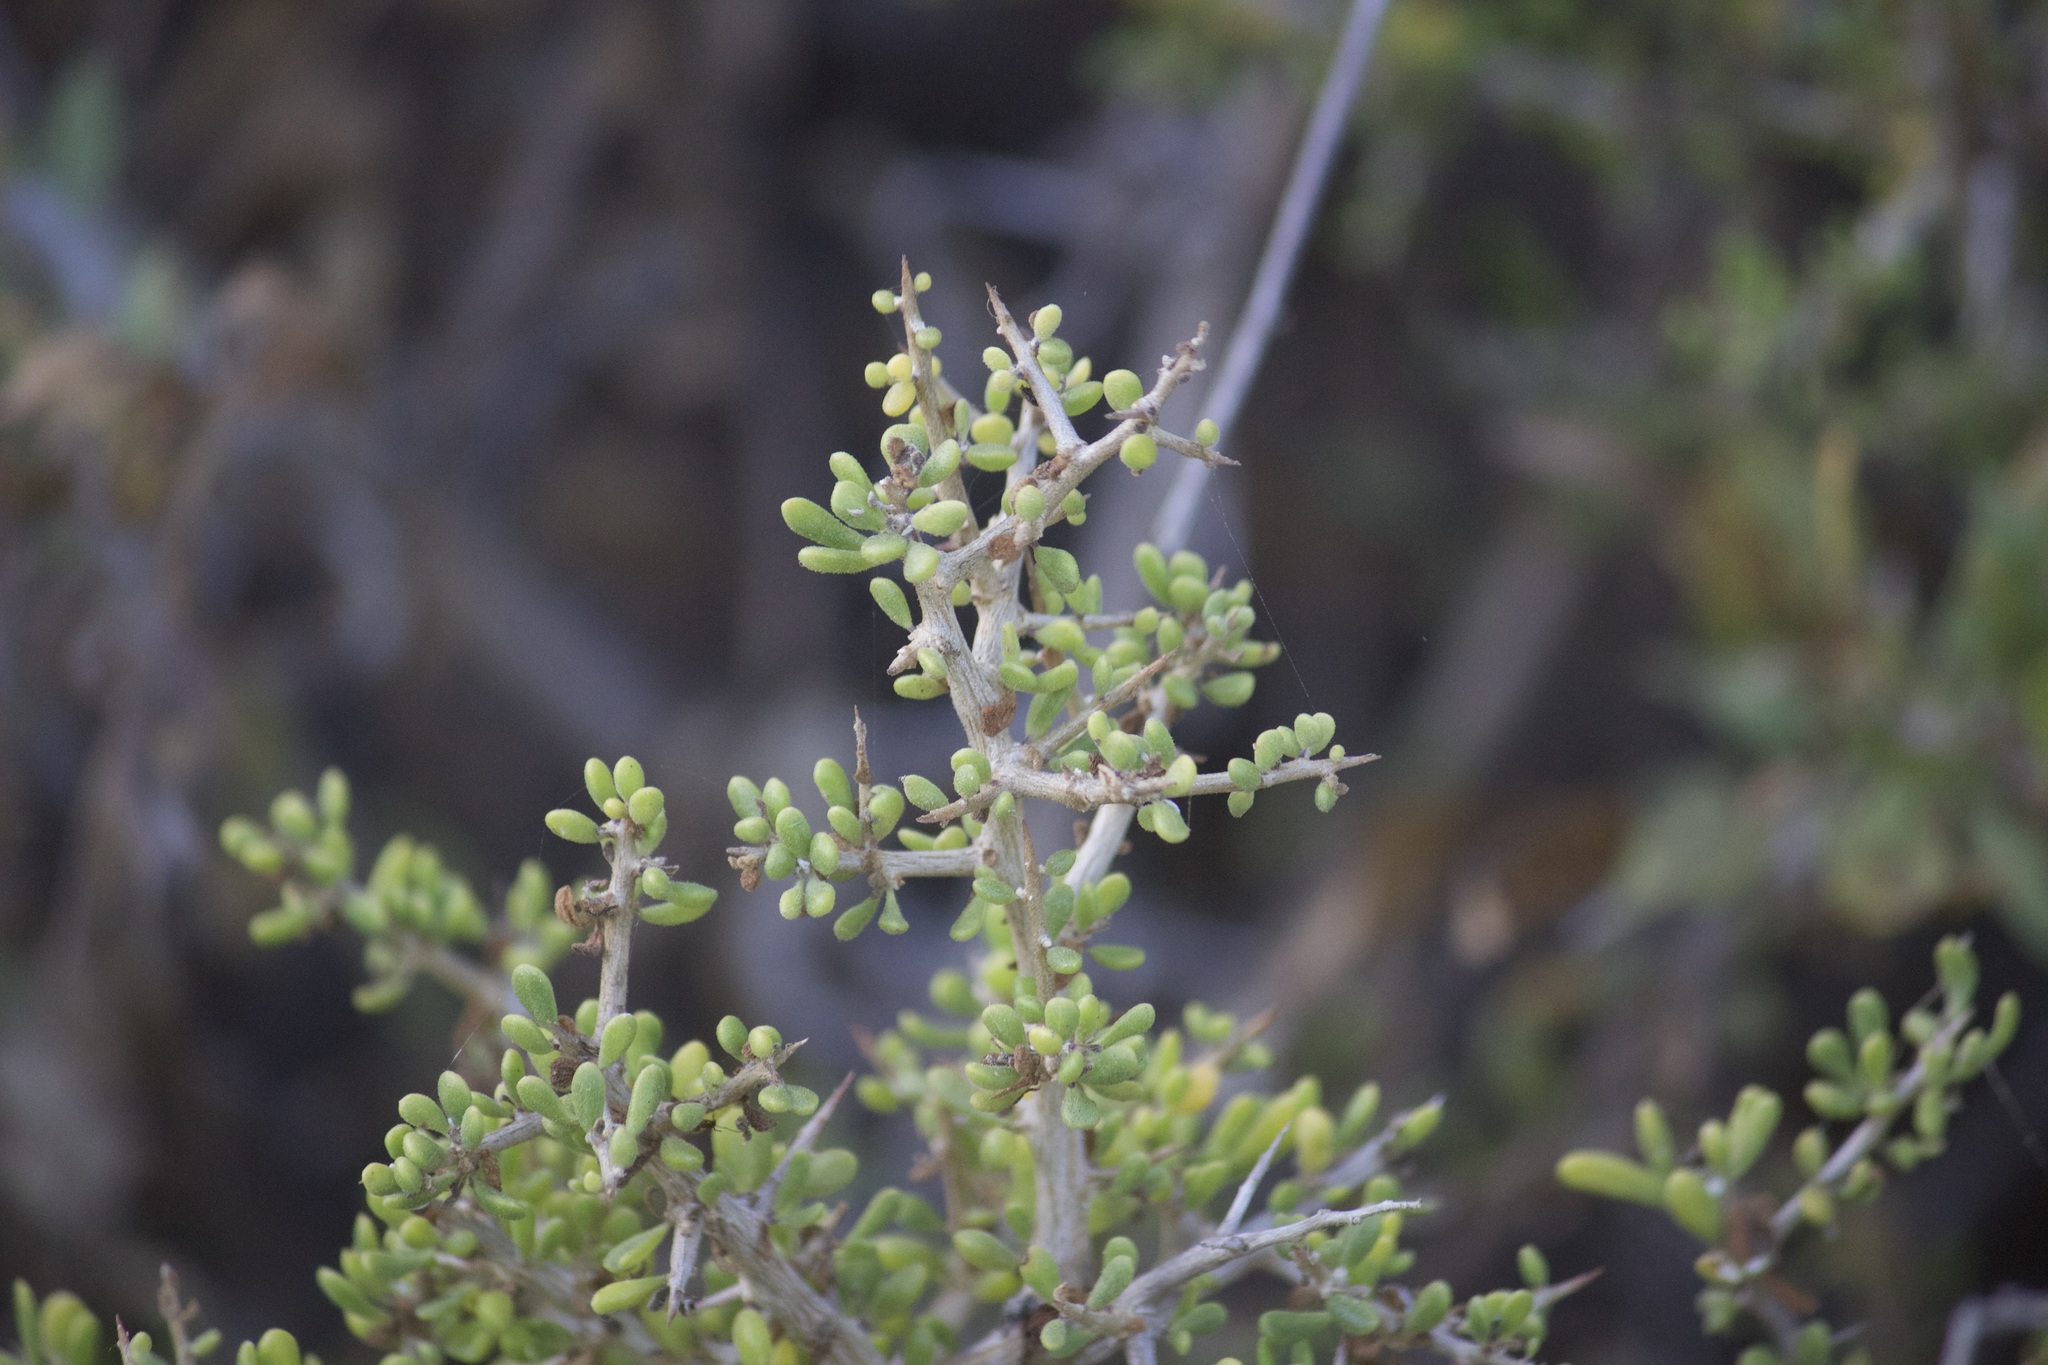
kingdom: Plantae
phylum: Tracheophyta
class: Magnoliopsida
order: Solanales
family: Solanaceae
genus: Lycium
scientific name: Lycium californicum
